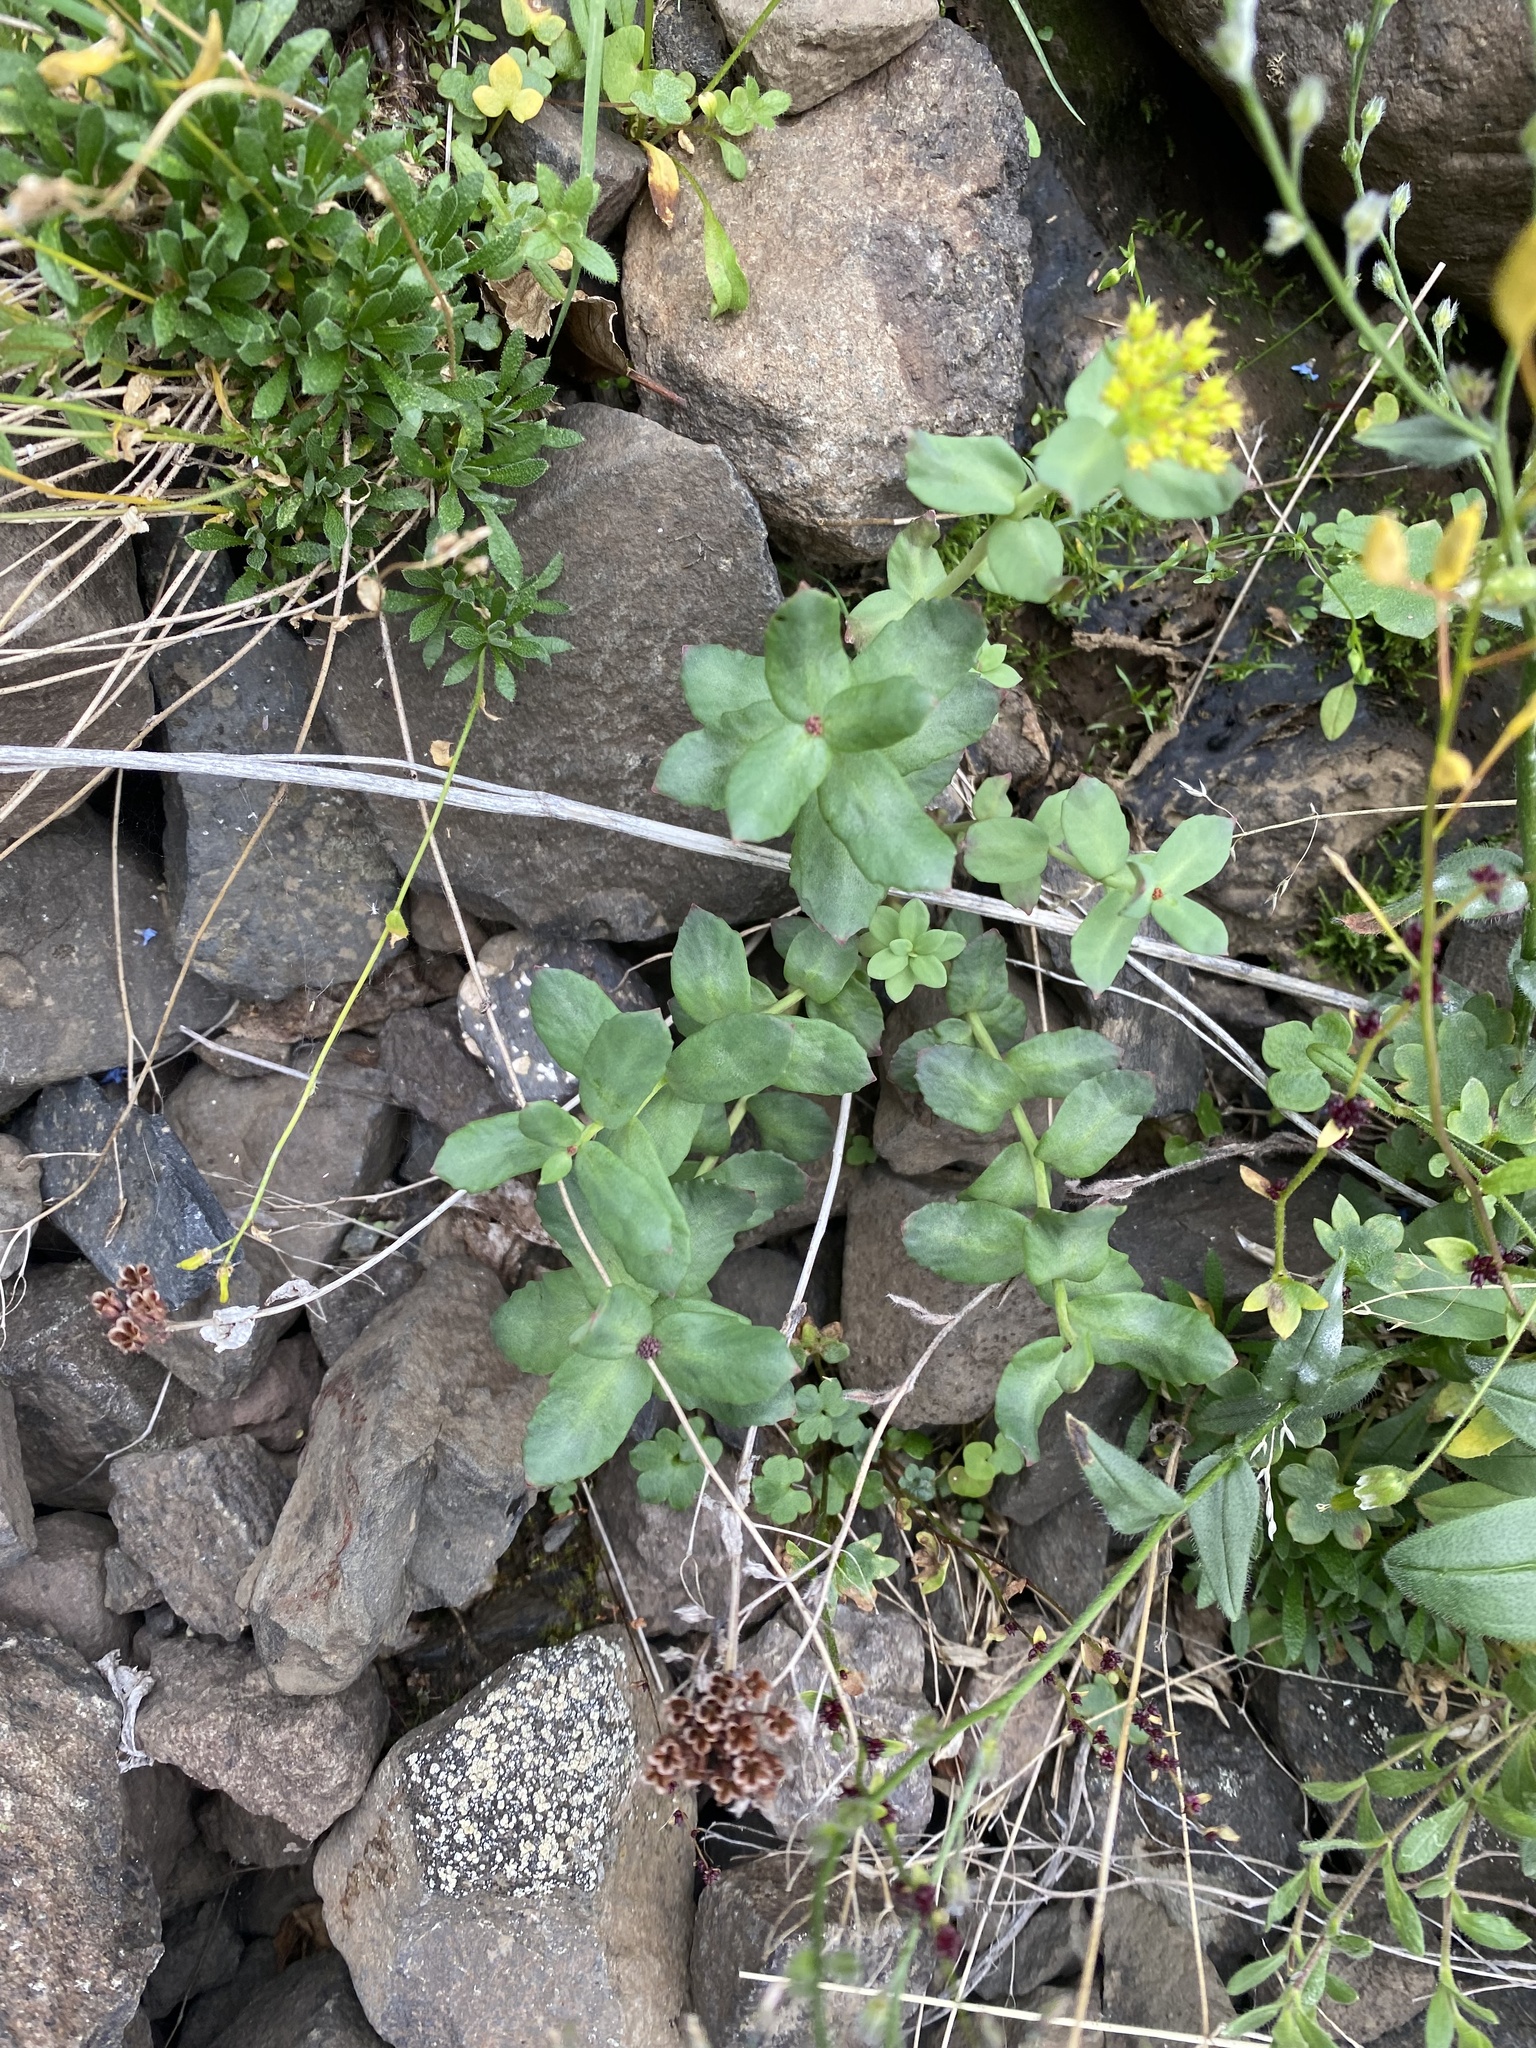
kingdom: Plantae
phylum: Tracheophyta
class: Magnoliopsida
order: Saxifragales
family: Crassulaceae
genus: Rhodiola
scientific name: Rhodiola rosea
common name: Roseroot
